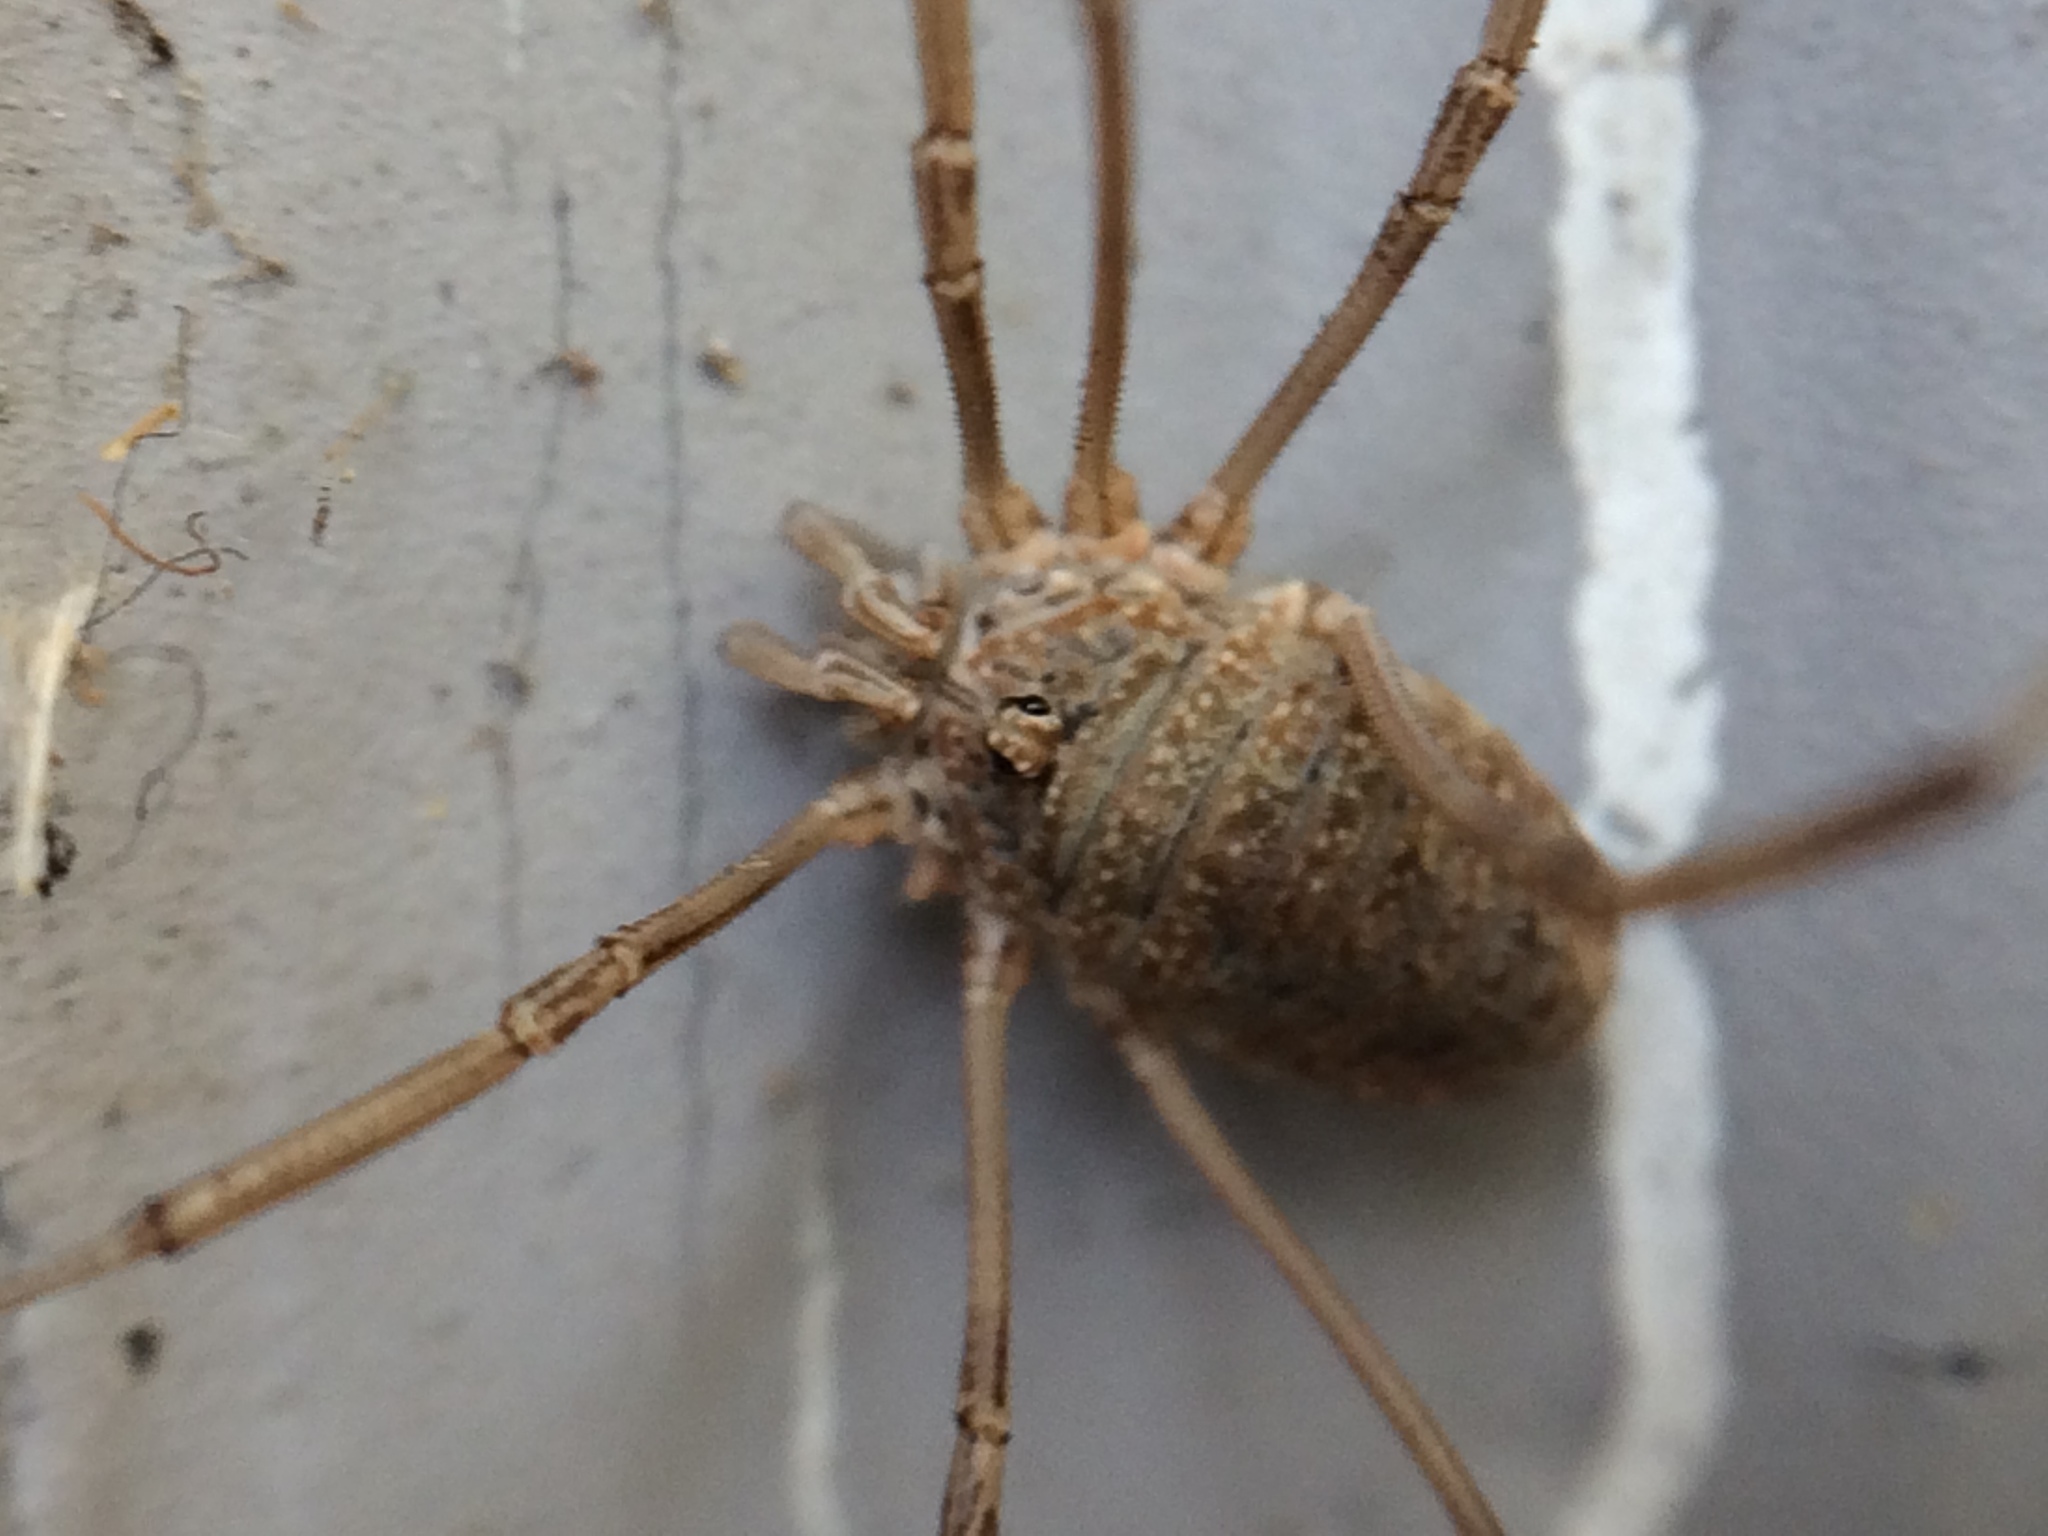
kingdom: Animalia
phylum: Arthropoda
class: Arachnida
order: Opiliones
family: Phalangiidae
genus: Phalangium
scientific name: Phalangium opilio
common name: Daddy longleg
